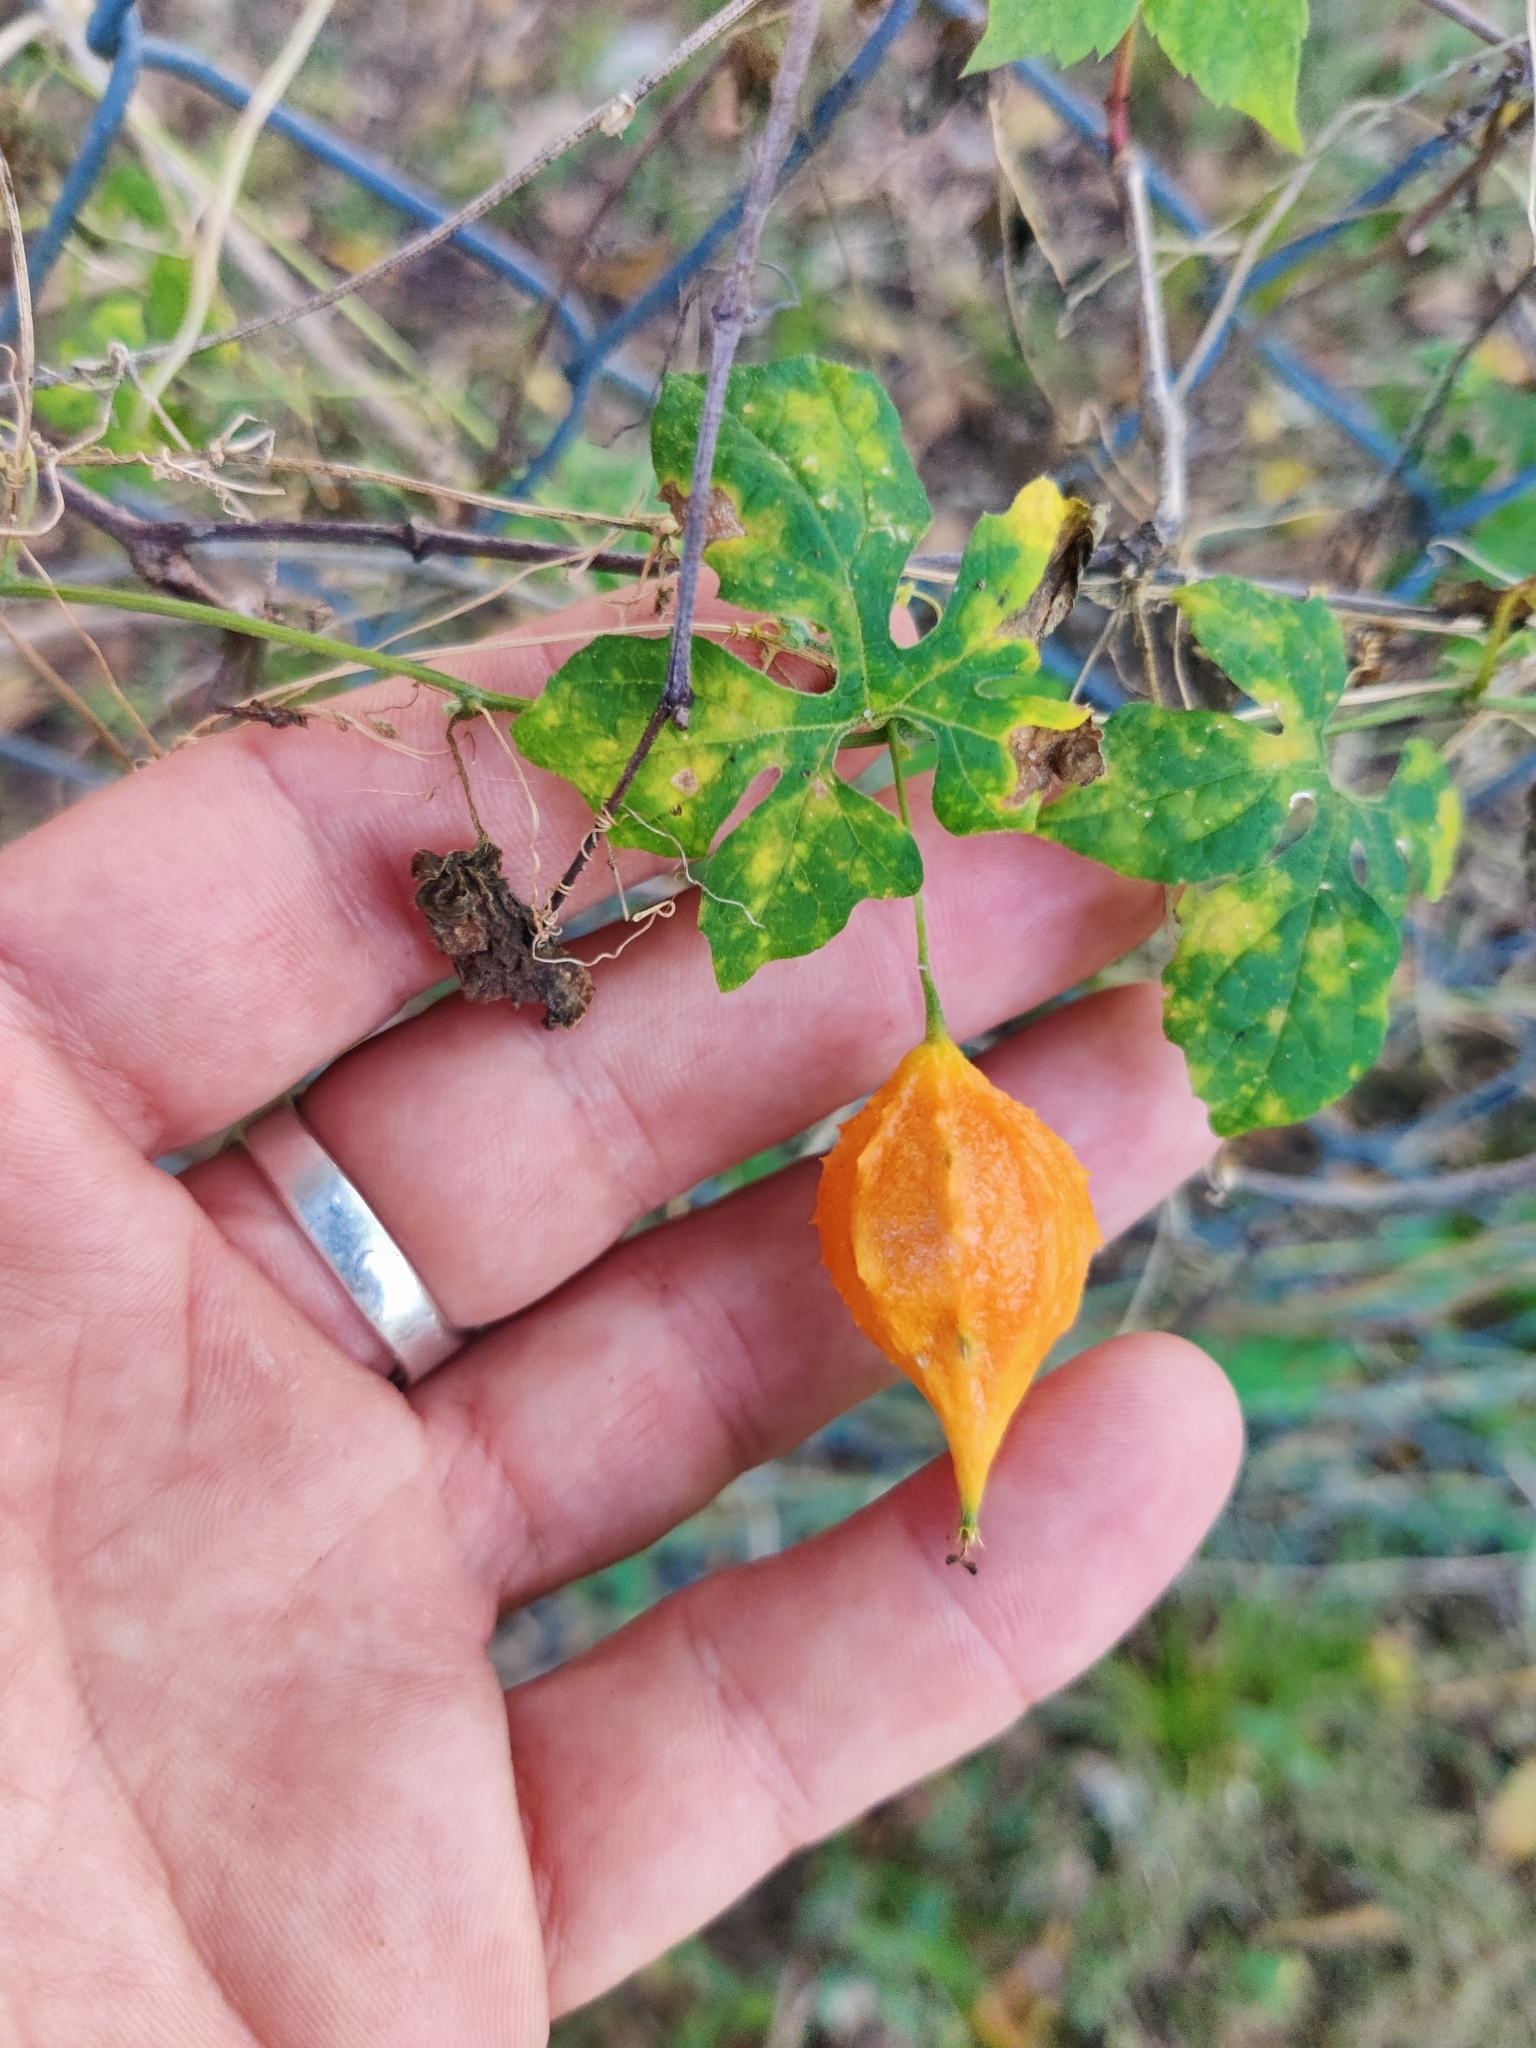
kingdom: Plantae
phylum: Tracheophyta
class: Magnoliopsida
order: Cucurbitales
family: Cucurbitaceae
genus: Momordica
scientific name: Momordica charantia
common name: Balsampear
